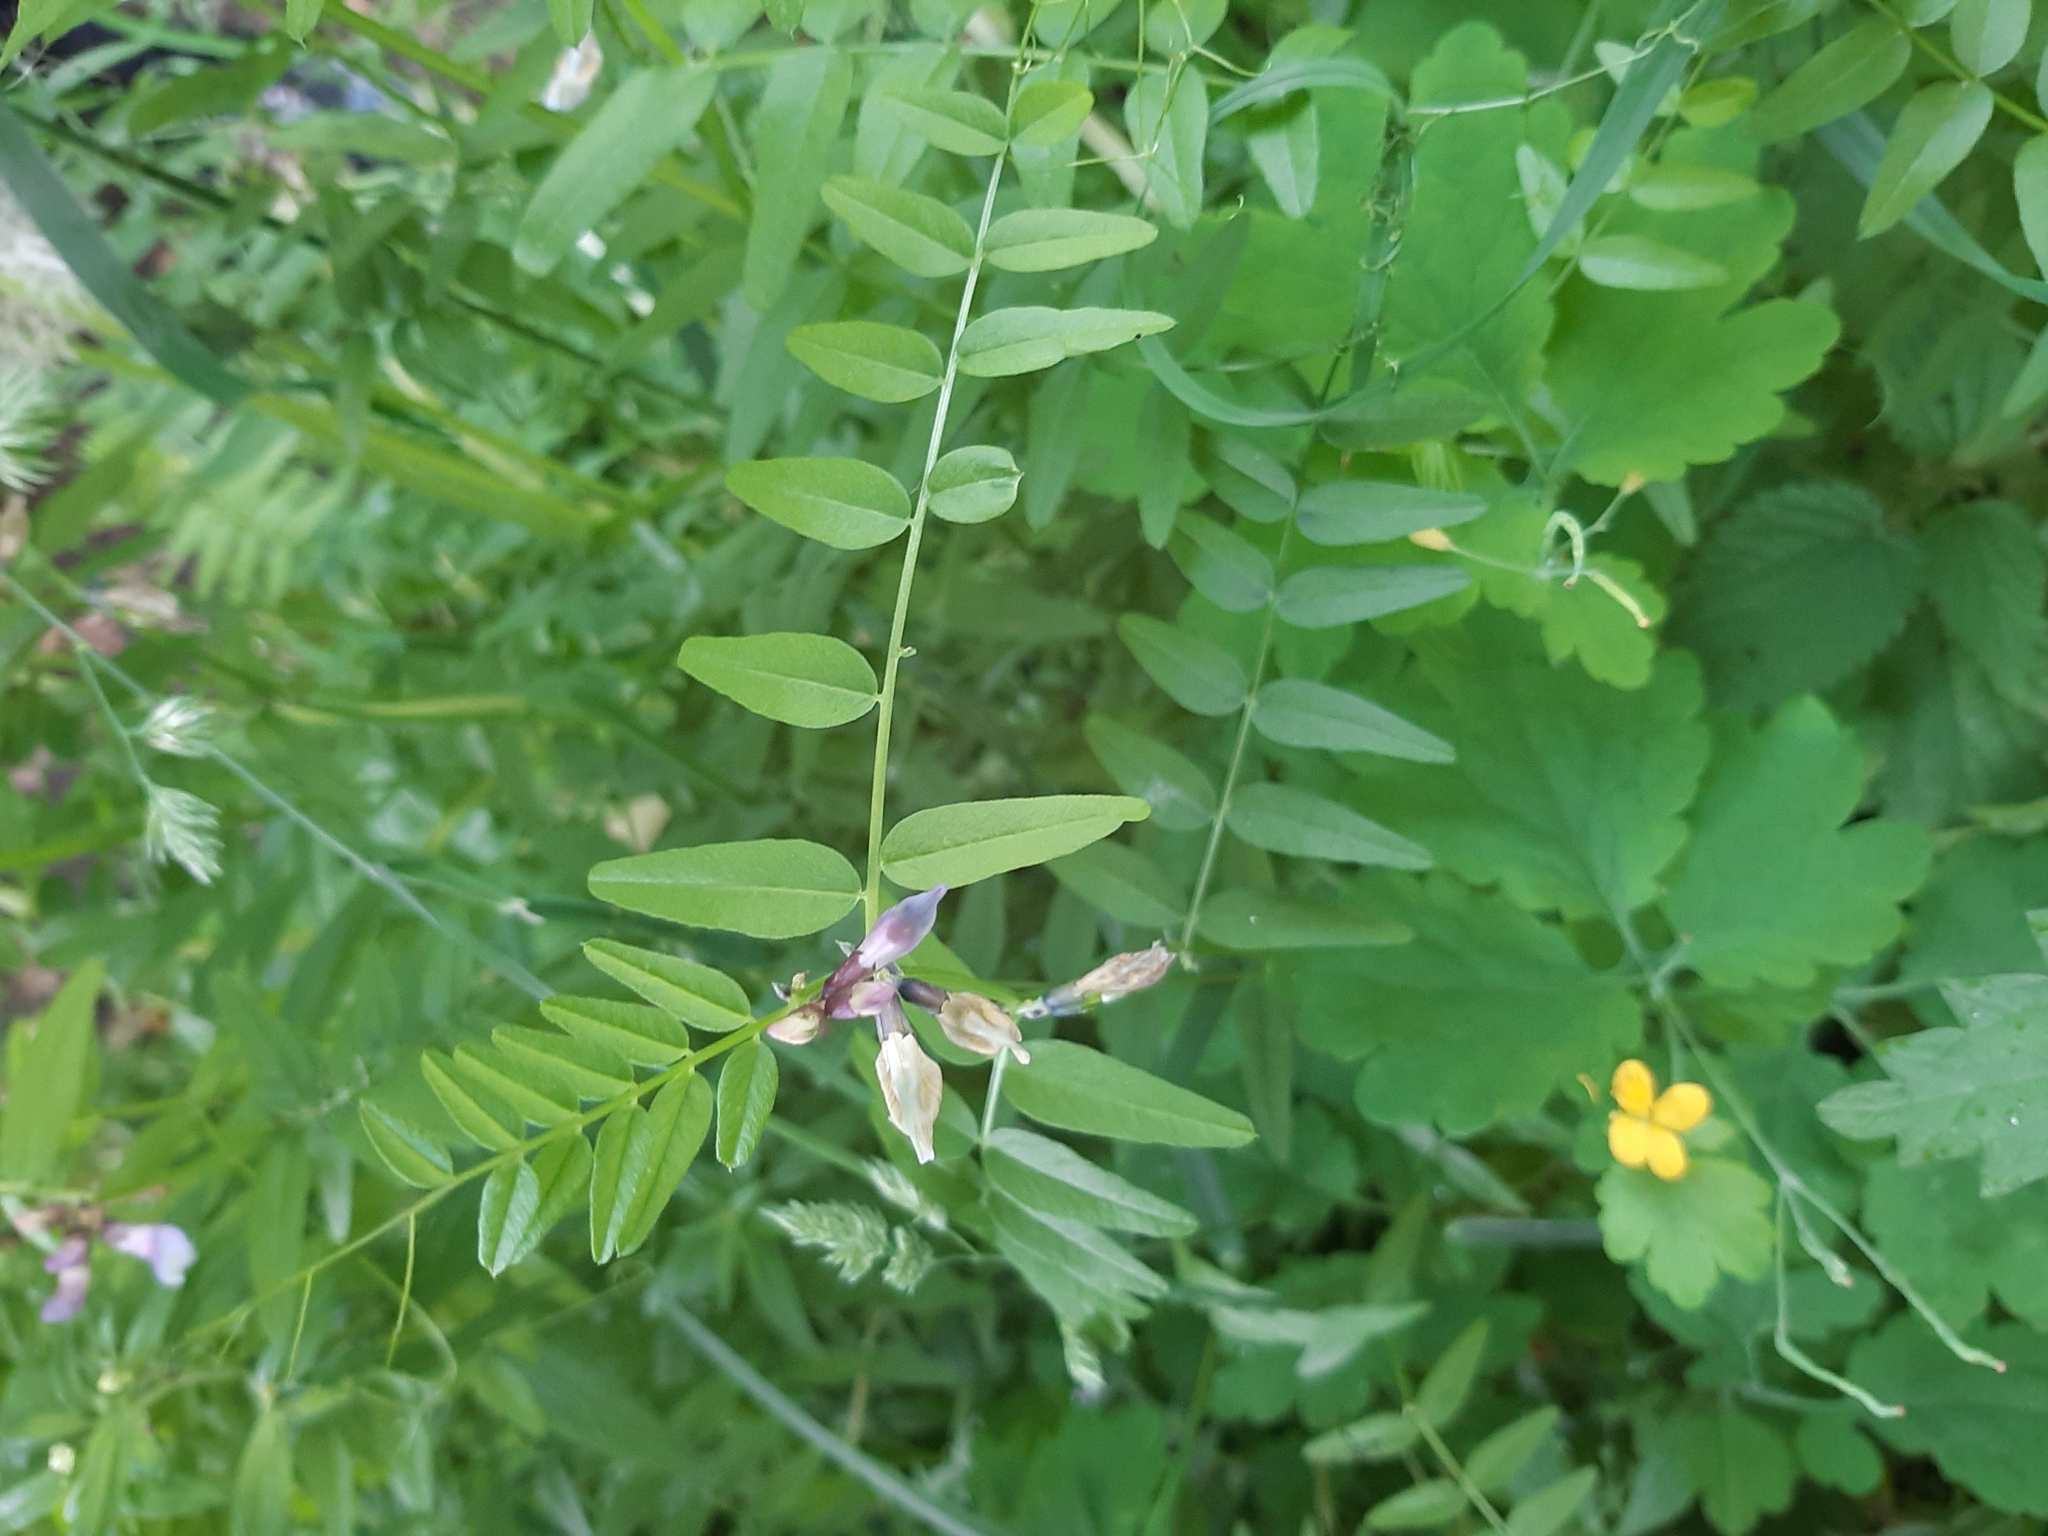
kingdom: Plantae
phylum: Tracheophyta
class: Magnoliopsida
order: Fabales
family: Fabaceae
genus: Vicia
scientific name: Vicia sepium
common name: Bush vetch
